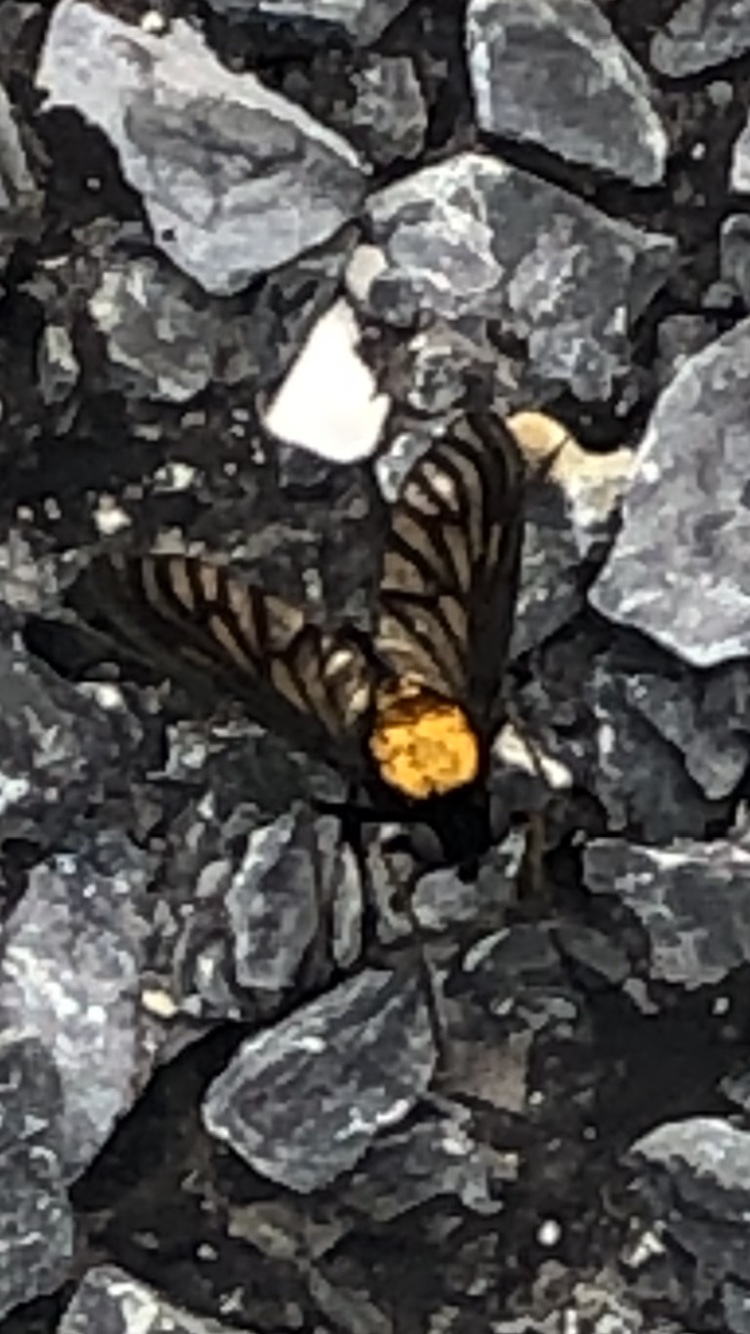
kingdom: Animalia
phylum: Arthropoda
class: Insecta
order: Diptera
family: Rhagionidae
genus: Chrysopilus
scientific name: Chrysopilus thoracicus
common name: Golden-backed snipe fly
